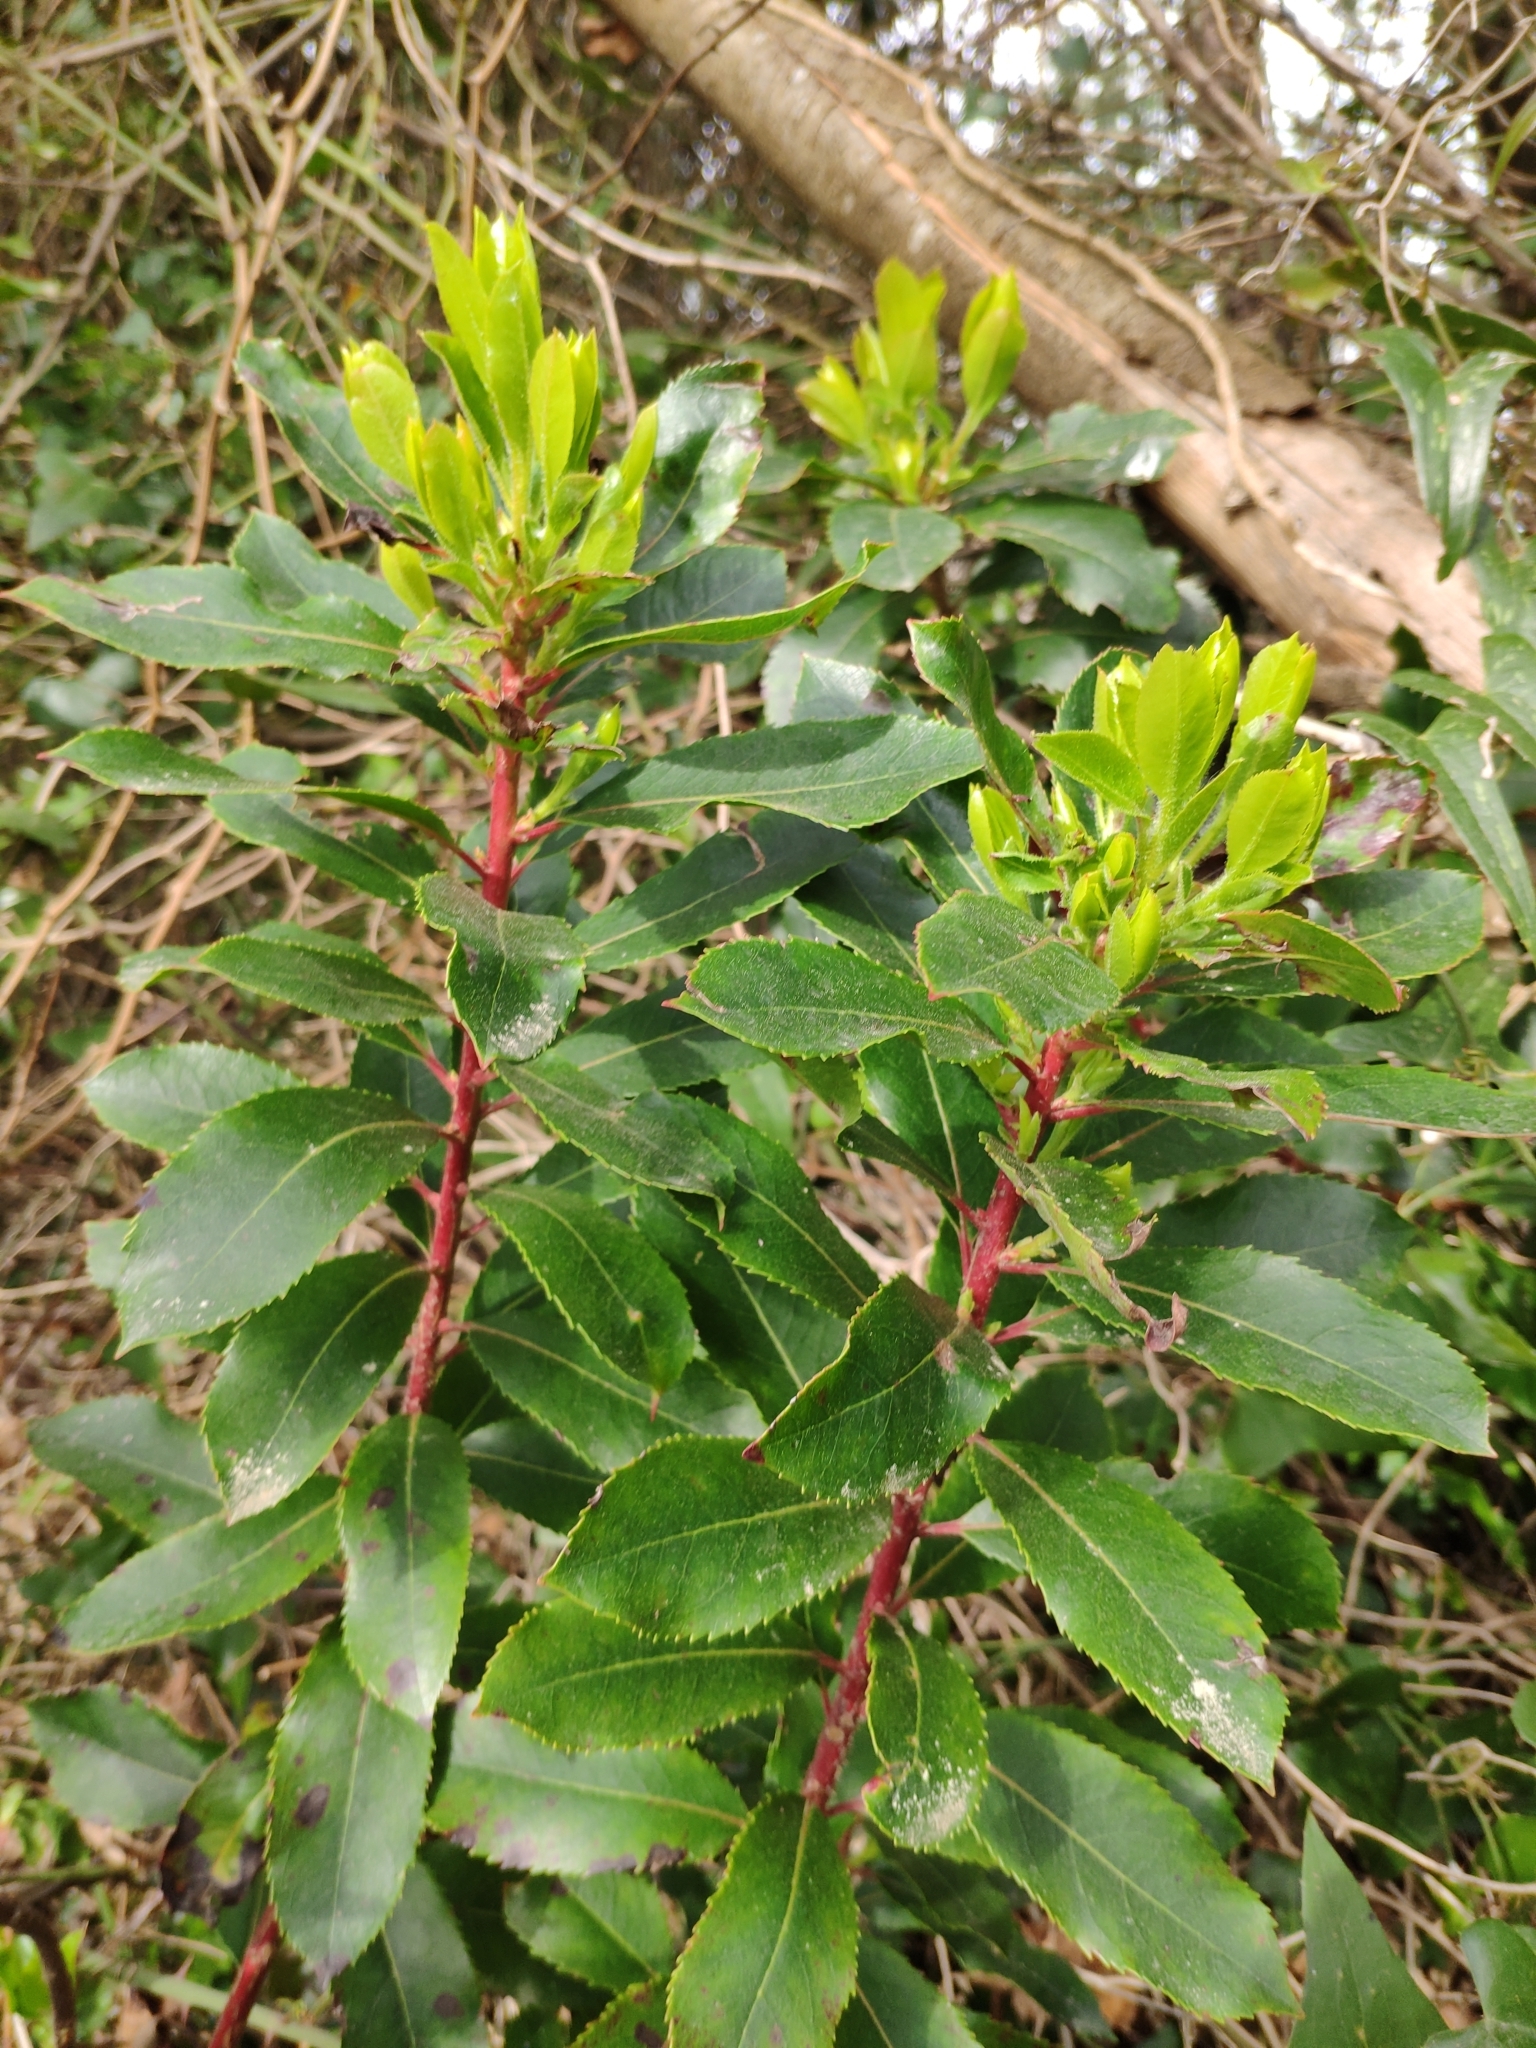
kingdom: Plantae
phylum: Tracheophyta
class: Magnoliopsida
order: Ericales
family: Ericaceae
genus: Arbutus
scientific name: Arbutus unedo
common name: Strawberry-tree
